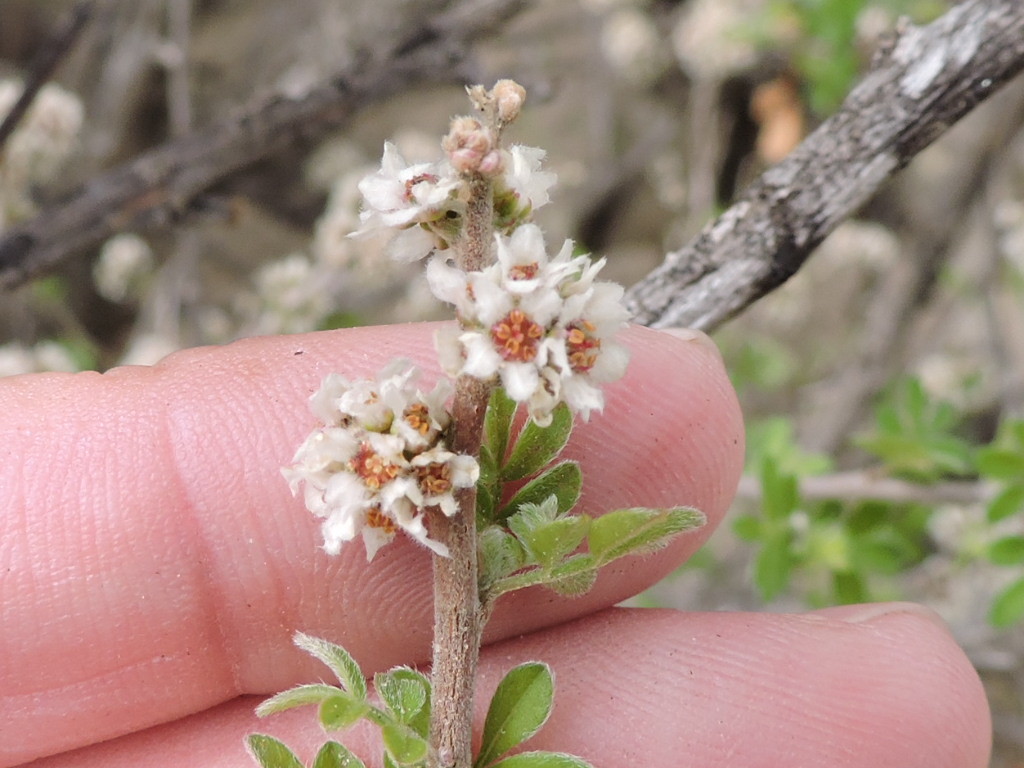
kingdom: Plantae
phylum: Tracheophyta
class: Magnoliopsida
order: Sapindales
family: Anacardiaceae
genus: Rhus
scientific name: Rhus microphylla
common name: Desert sumac
